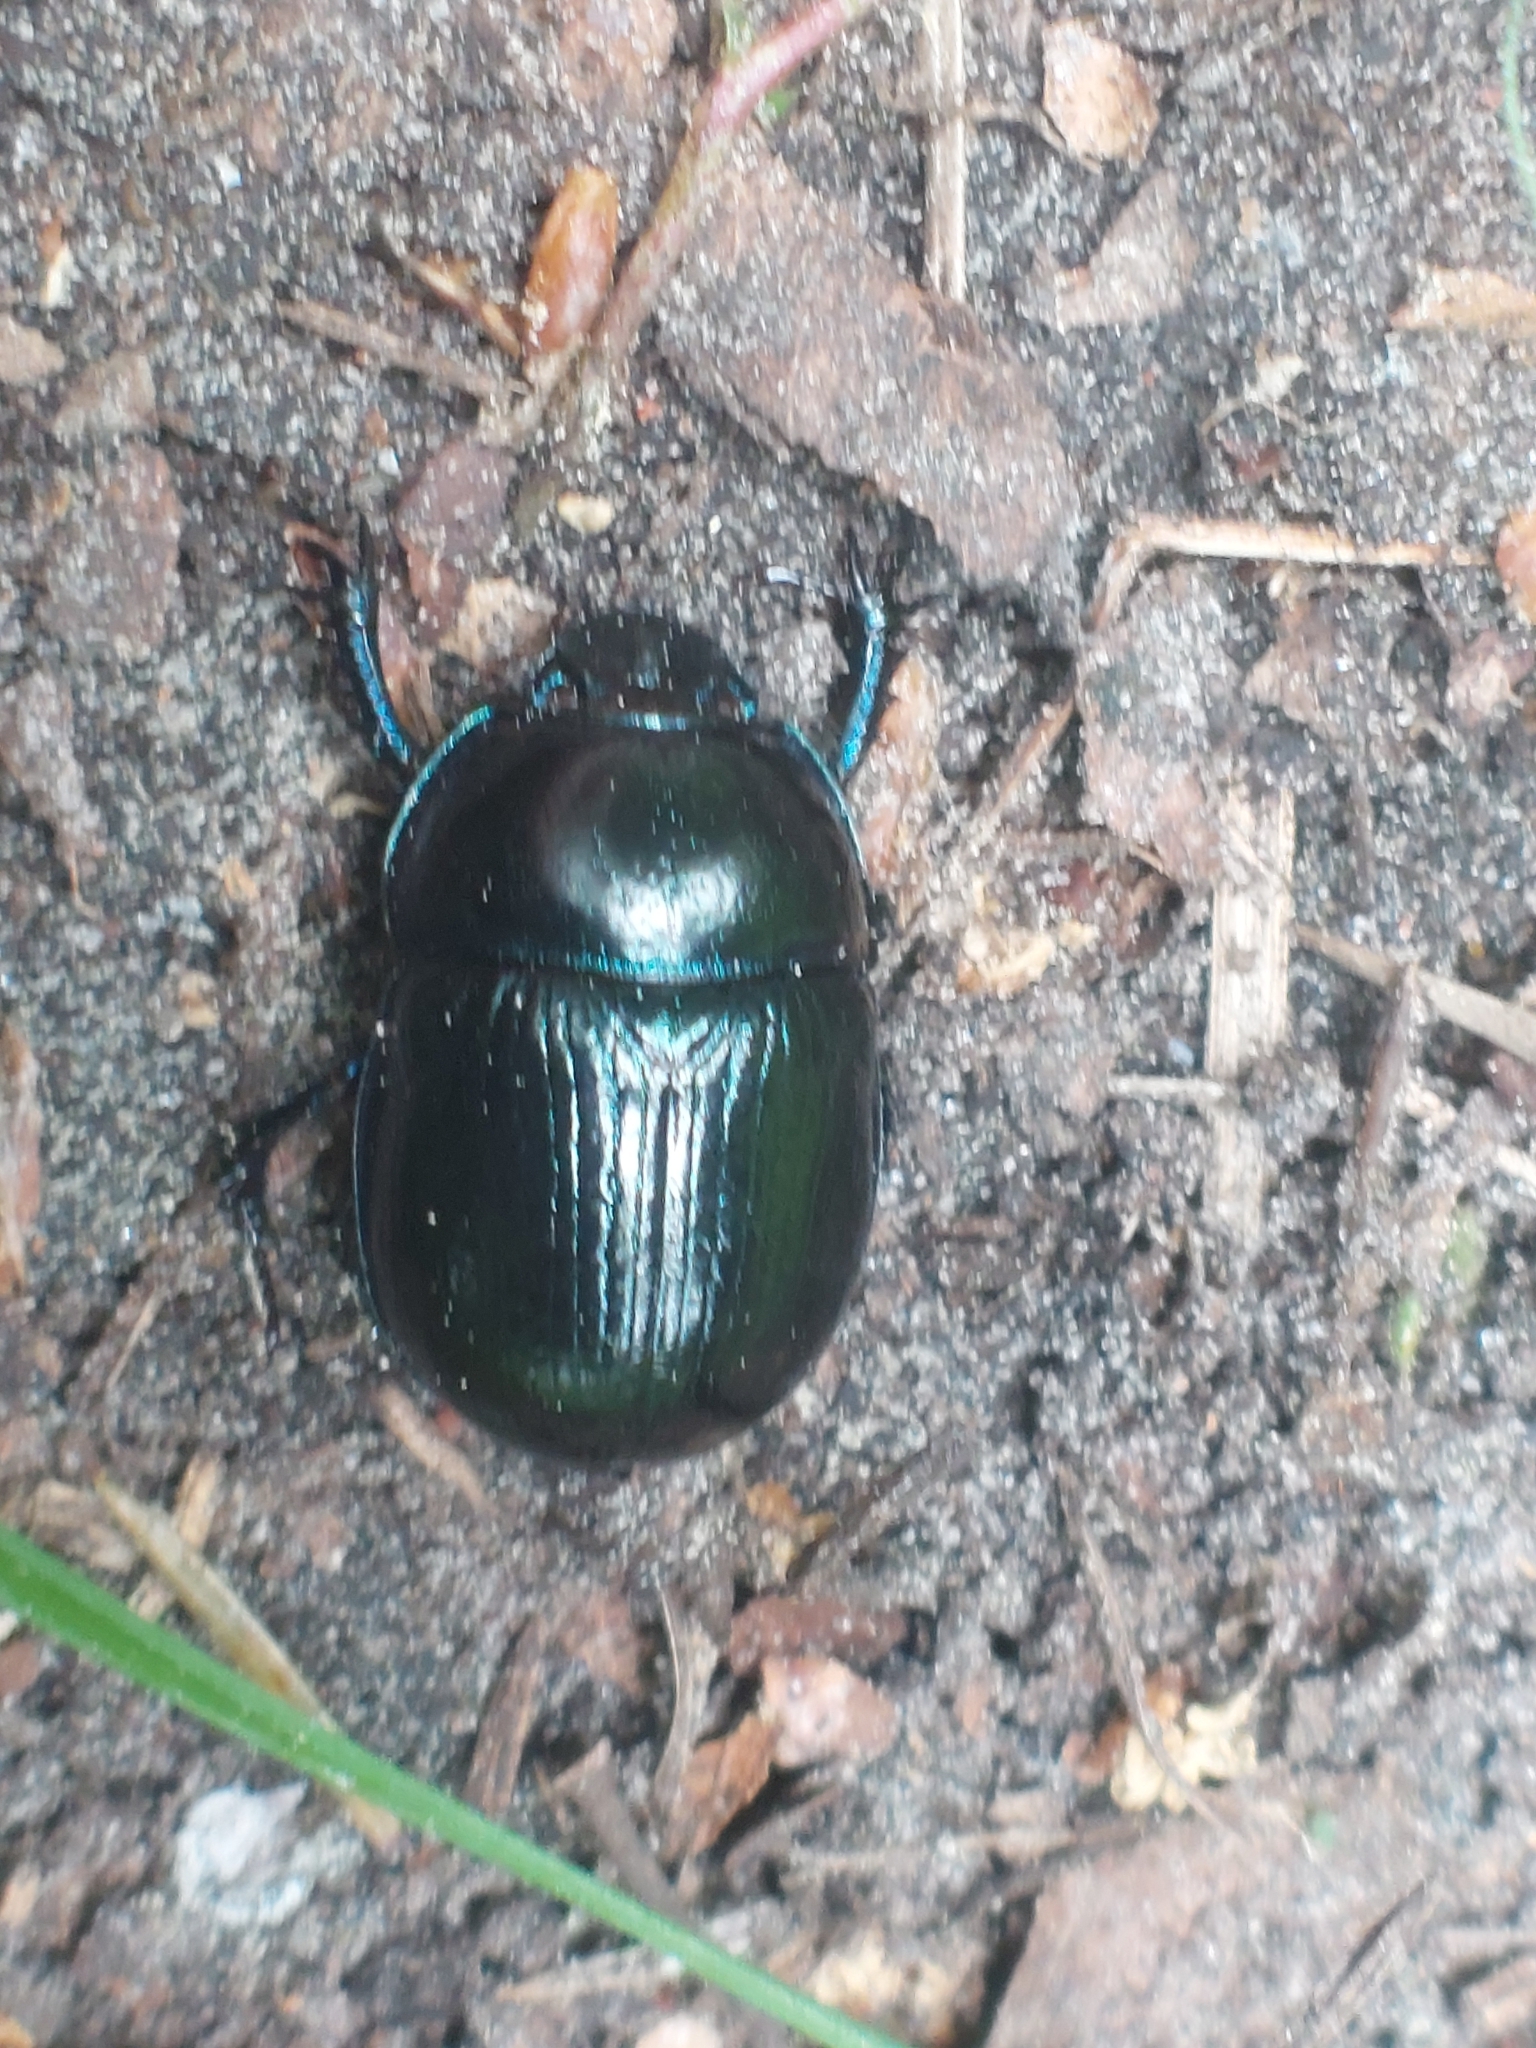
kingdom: Animalia
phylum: Arthropoda
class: Insecta
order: Coleoptera
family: Geotrupidae
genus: Anoplotrupes
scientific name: Anoplotrupes stercorosus
